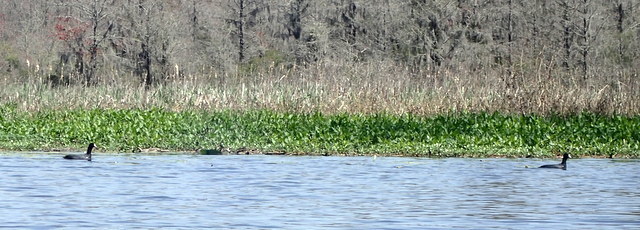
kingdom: Animalia
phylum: Chordata
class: Aves
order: Gruiformes
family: Rallidae
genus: Fulica
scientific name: Fulica americana
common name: American coot
